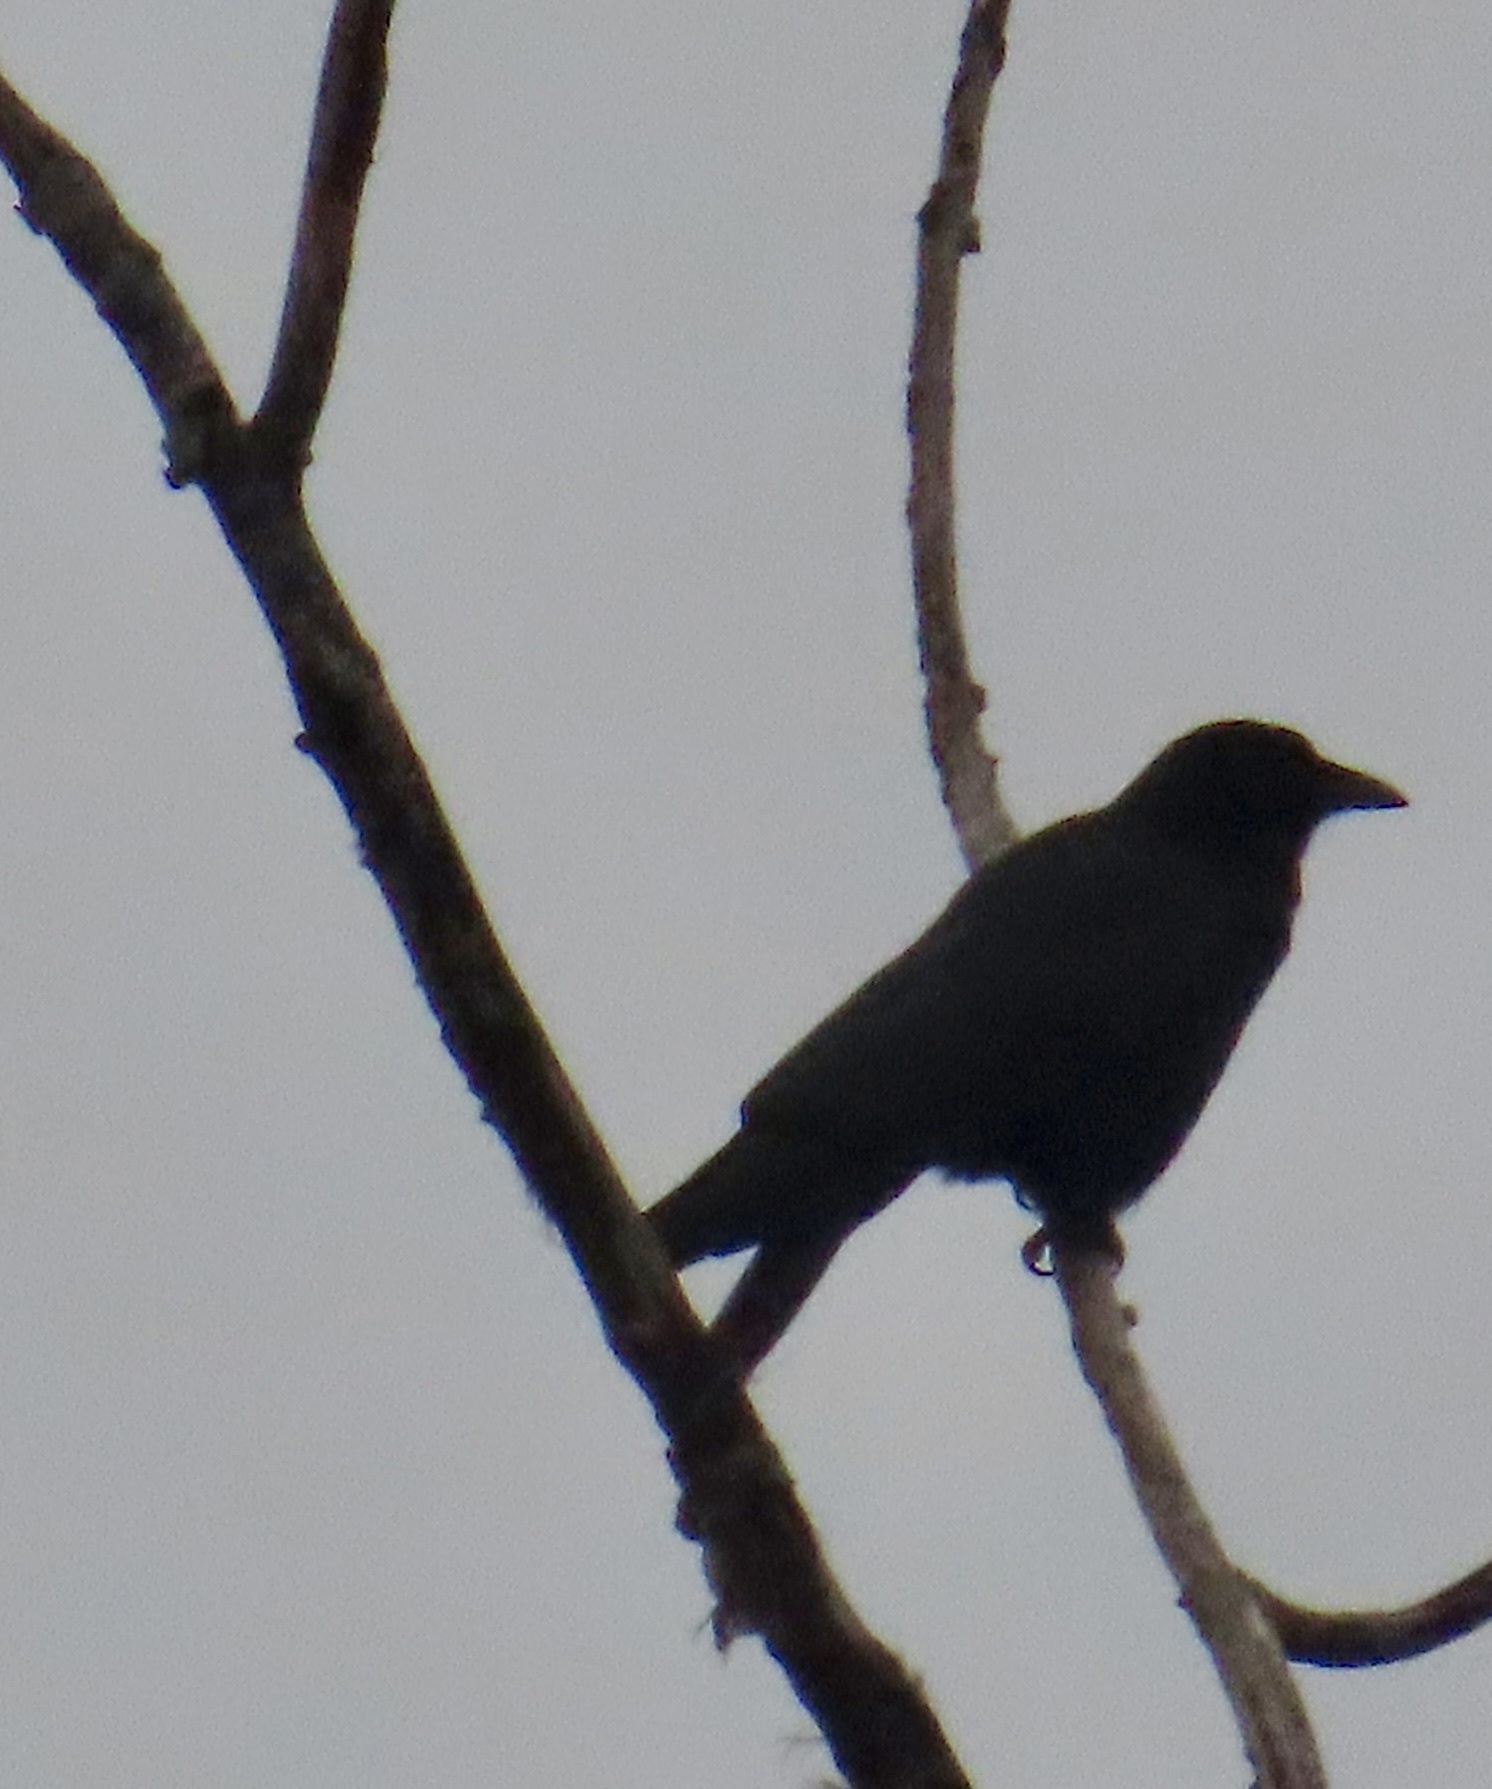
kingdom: Animalia
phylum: Chordata
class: Aves
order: Passeriformes
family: Corvidae
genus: Corvus
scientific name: Corvus brachyrhynchos
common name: American crow
